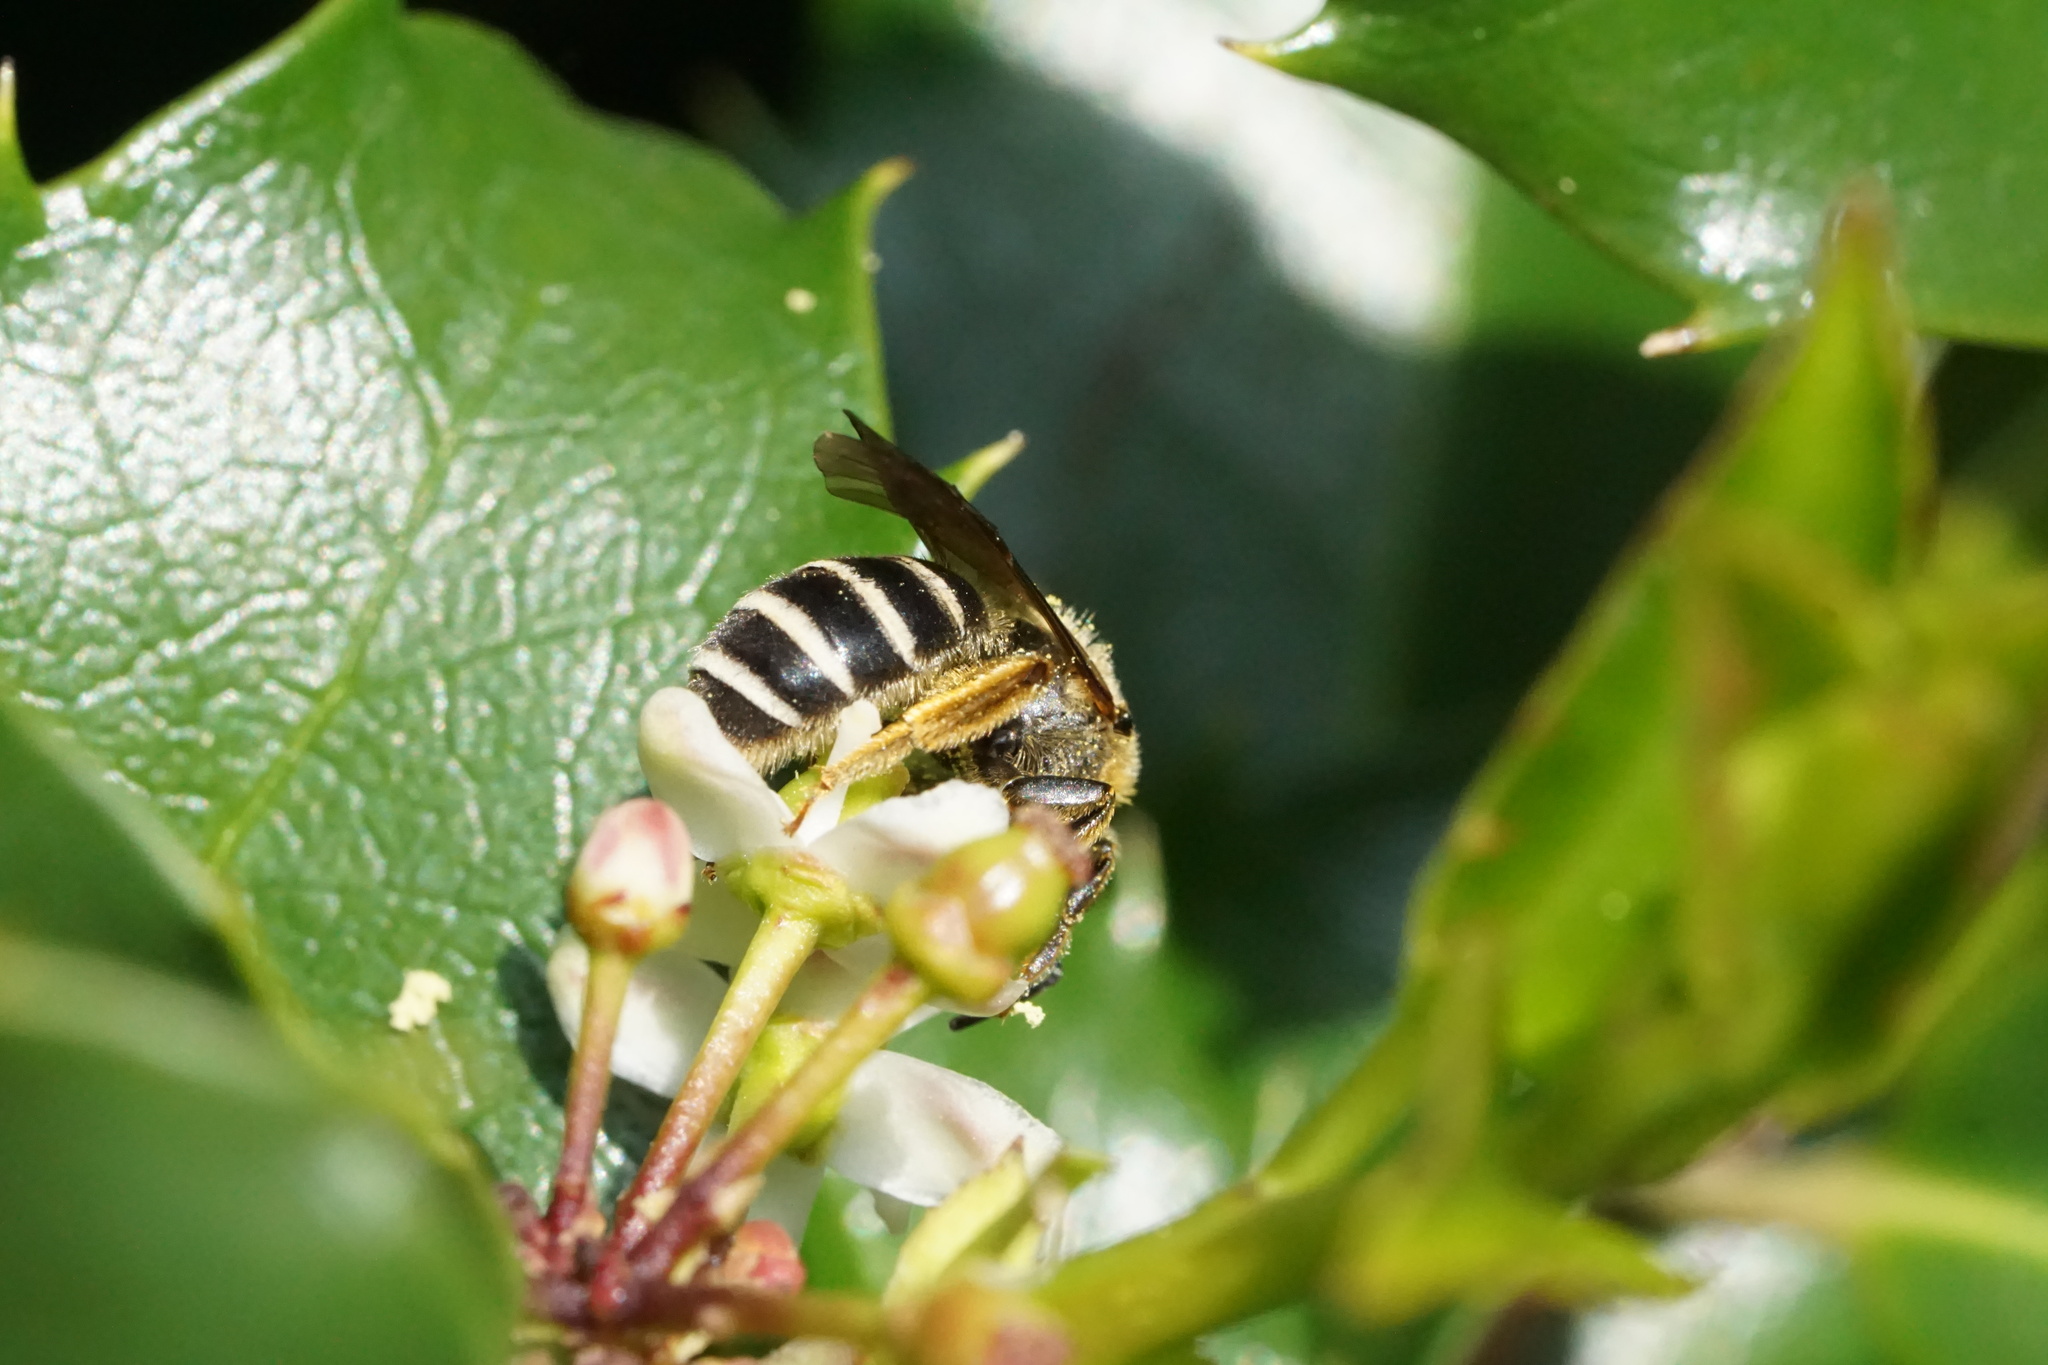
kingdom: Animalia
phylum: Arthropoda
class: Insecta
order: Hymenoptera
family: Halictidae
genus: Halictus
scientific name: Halictus rubicundus
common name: Orange-legged furrow bee
